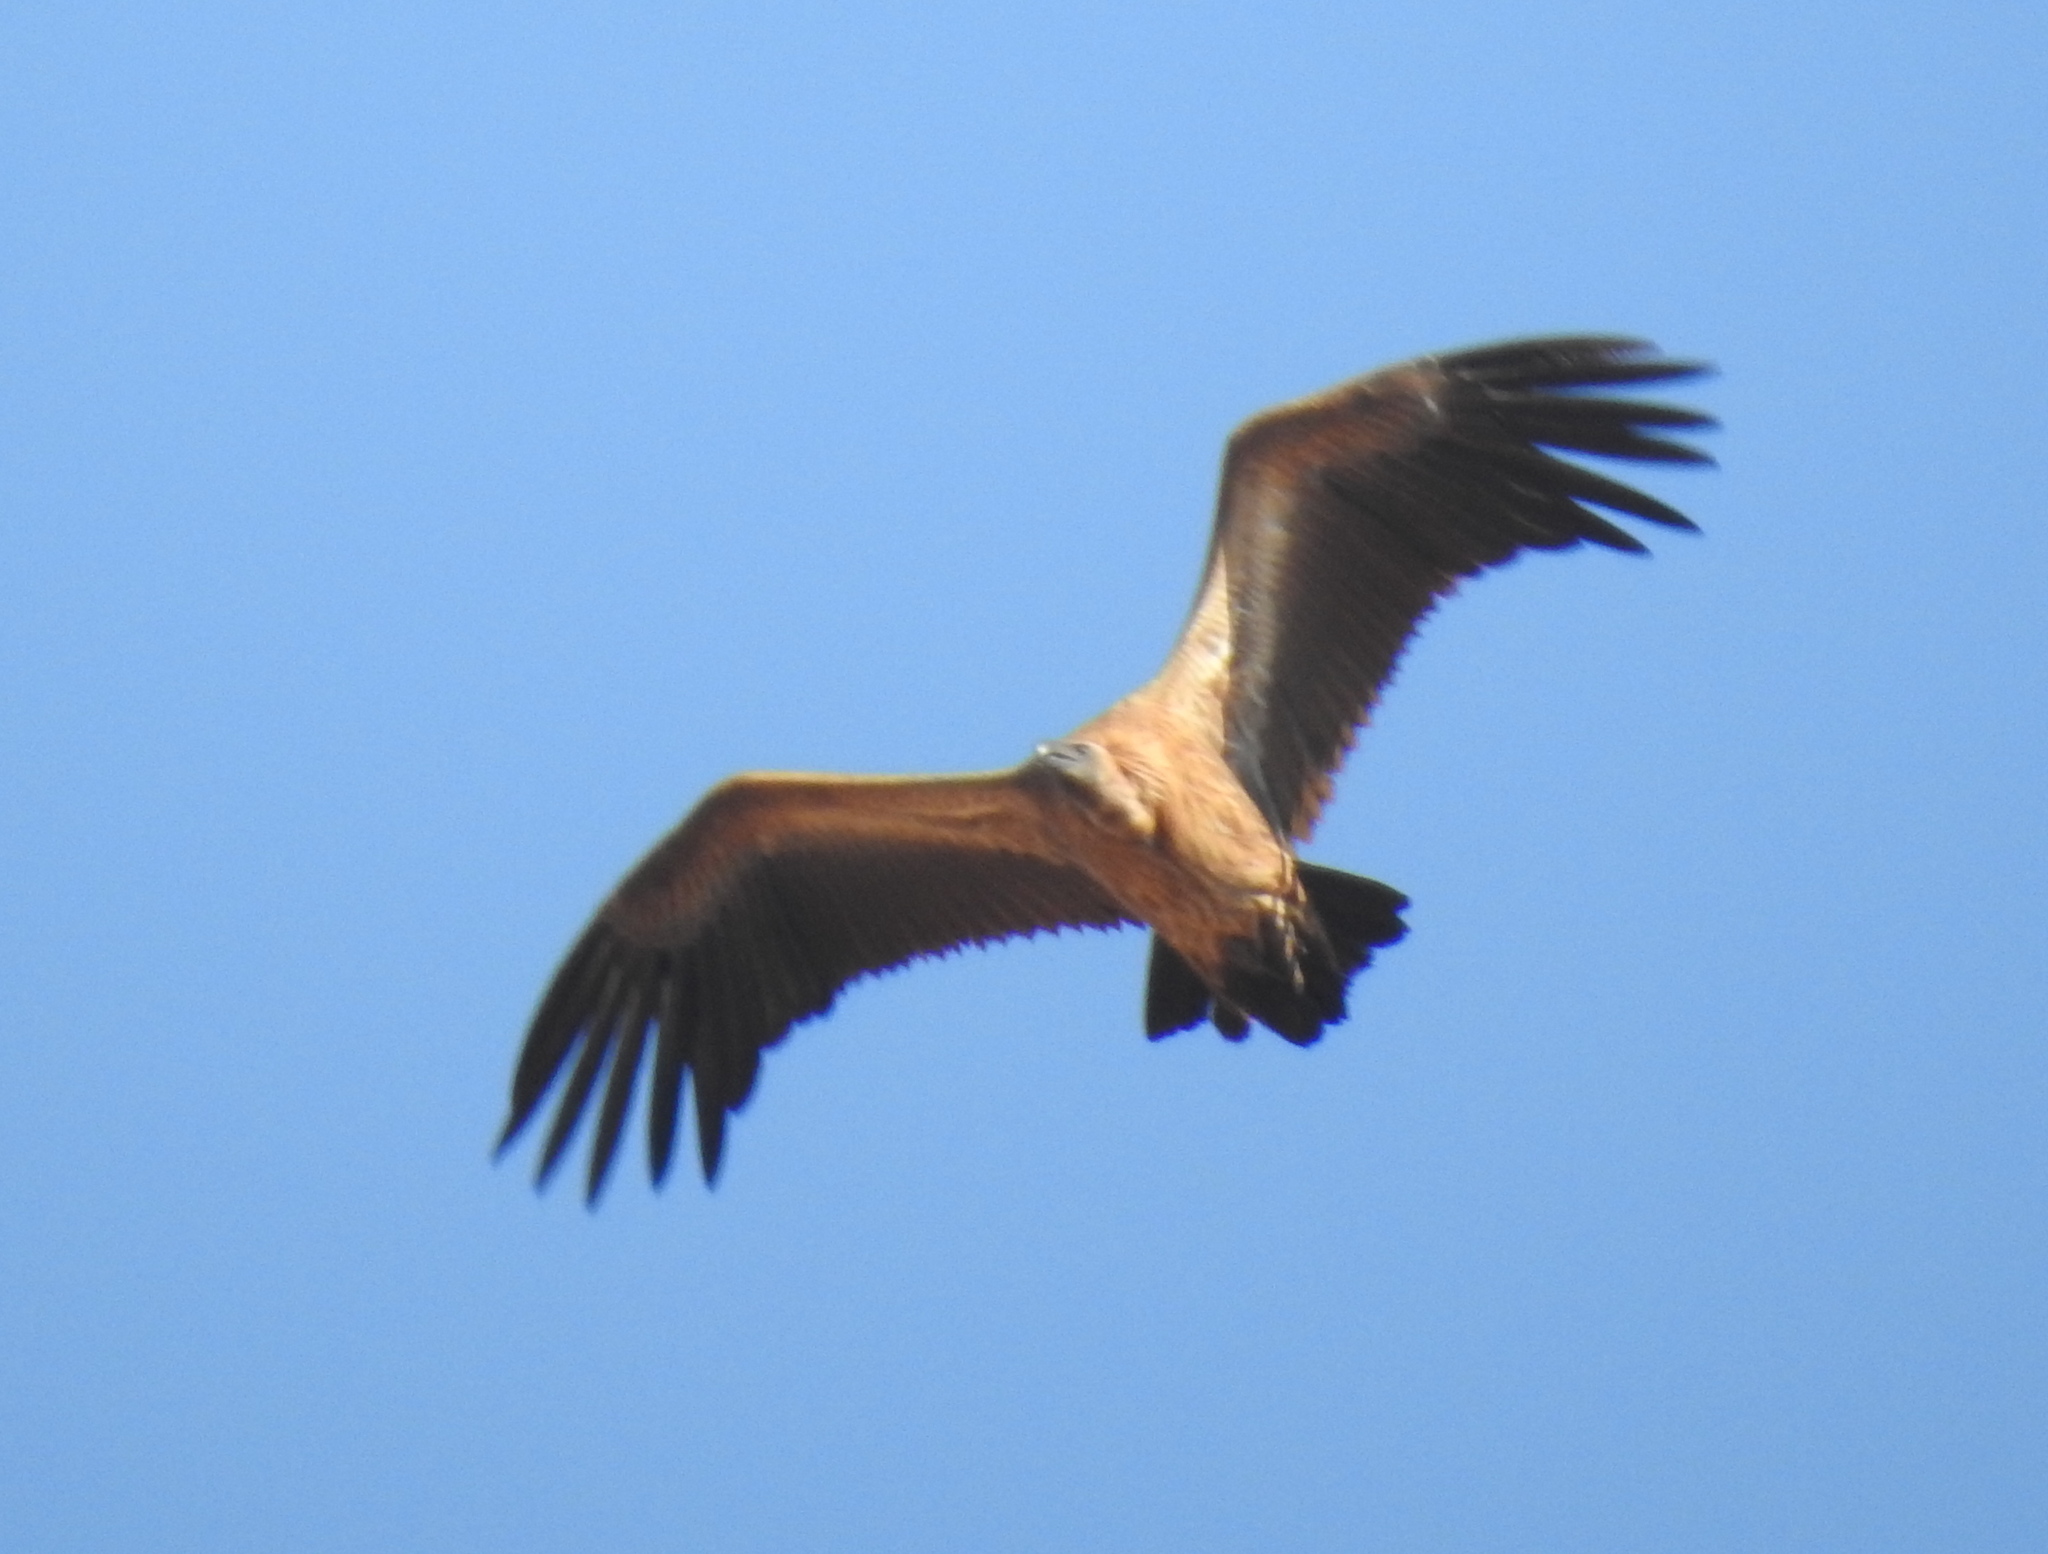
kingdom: Animalia
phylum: Chordata
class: Aves
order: Accipitriformes
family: Accipitridae
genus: Gyps
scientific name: Gyps africanus
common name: White-backed vulture
